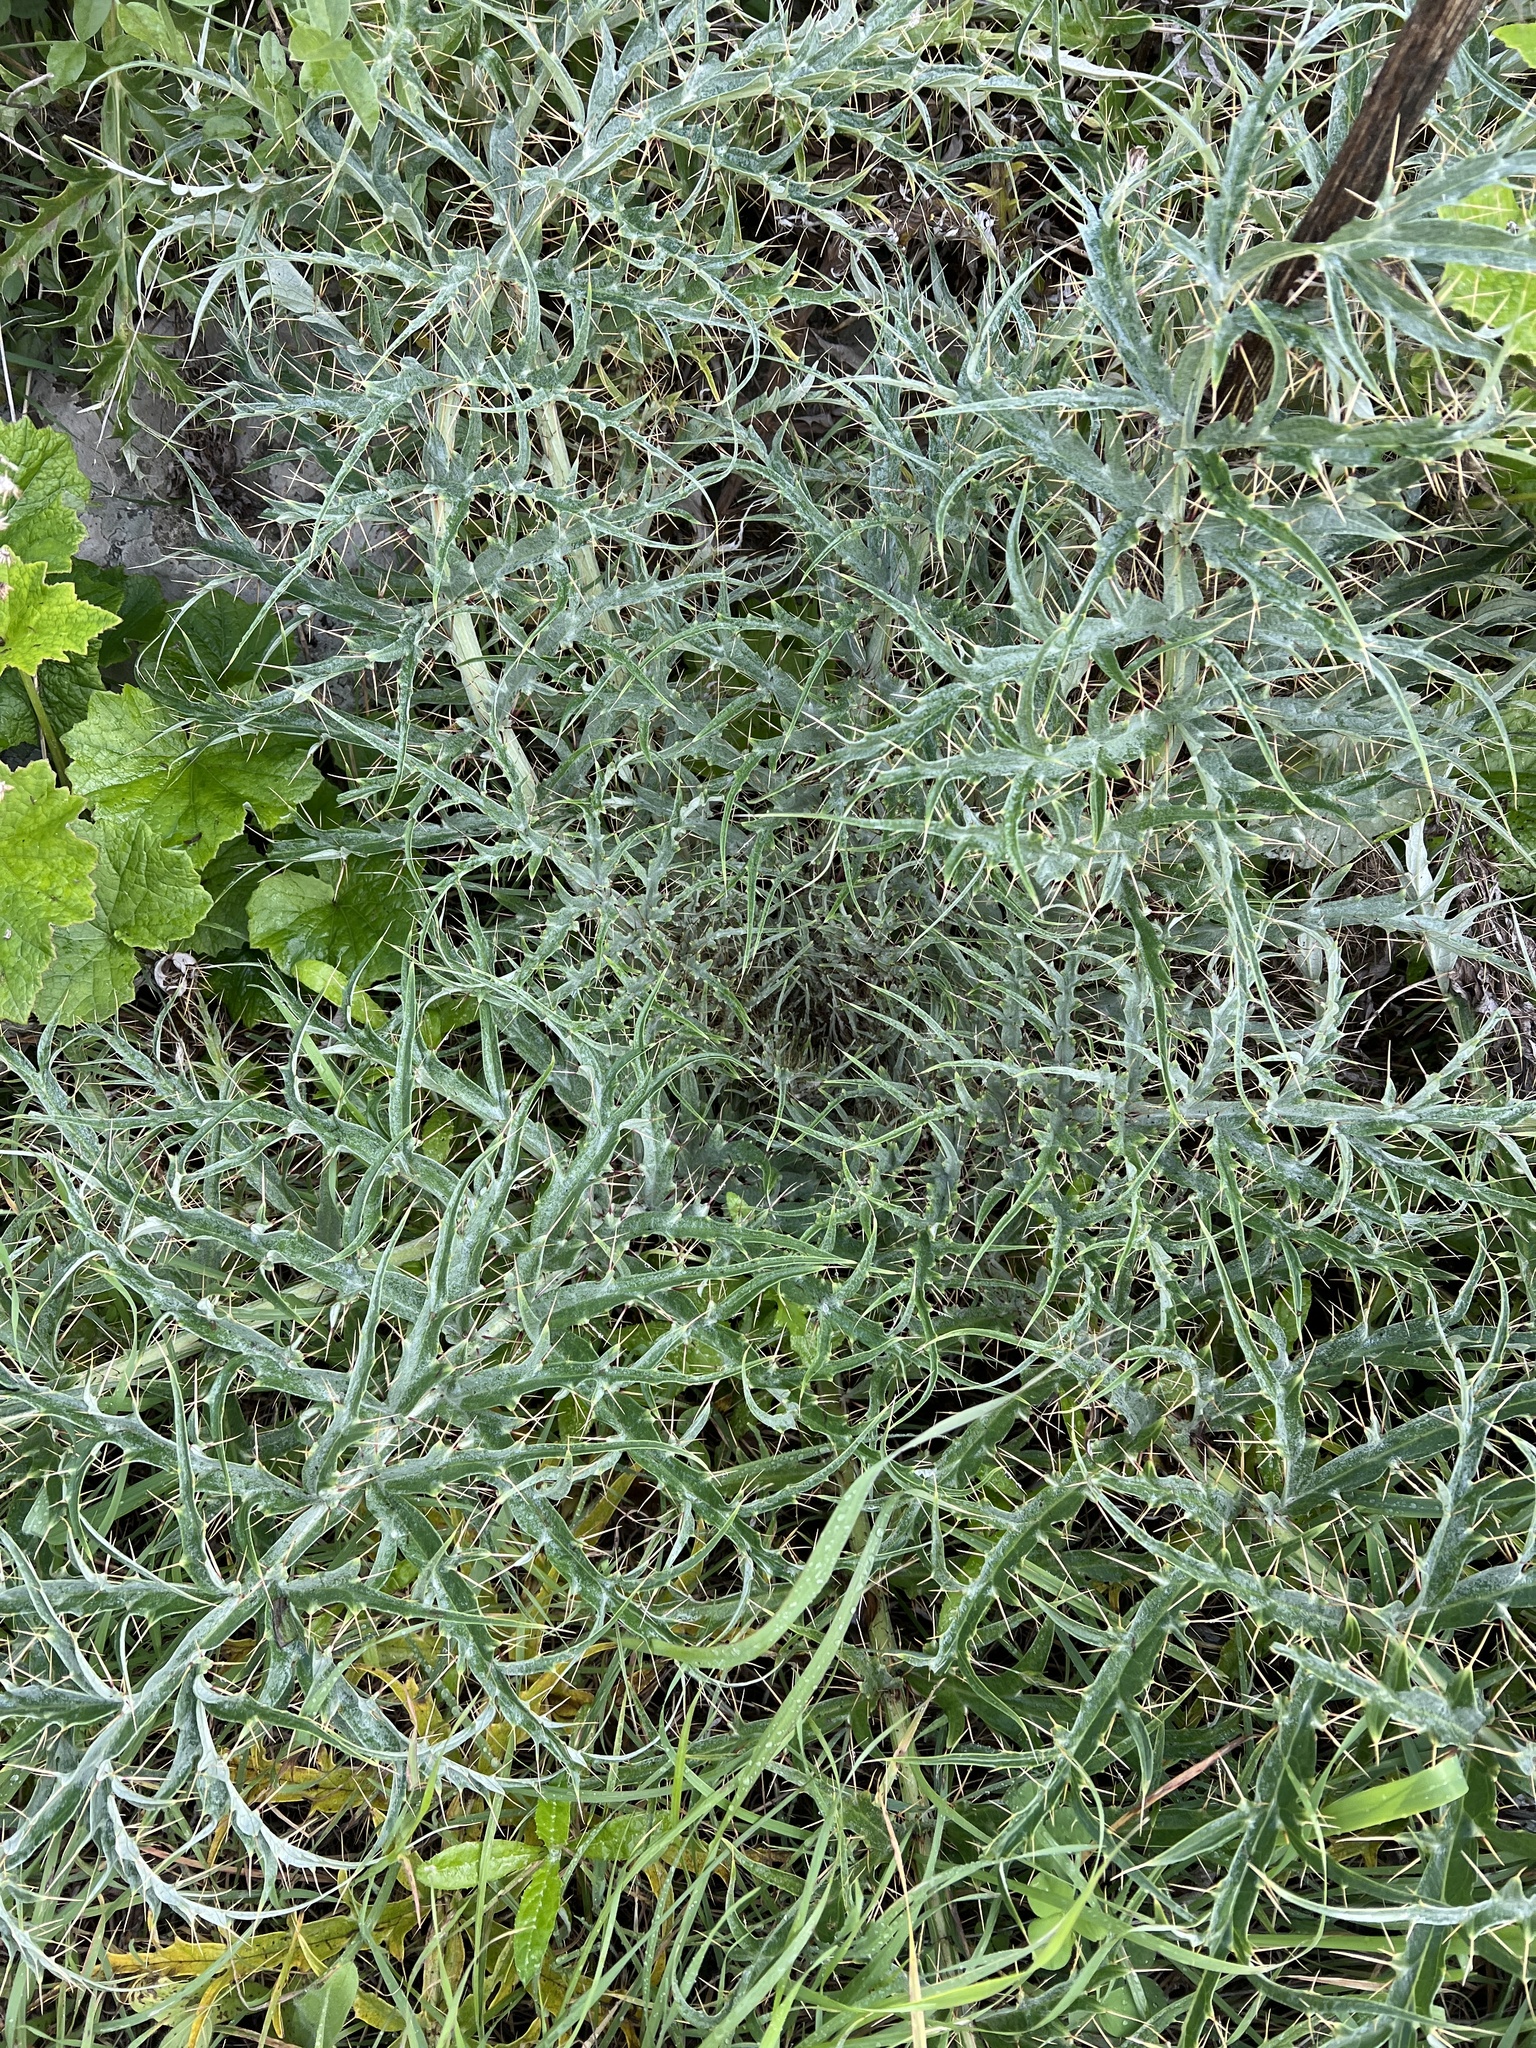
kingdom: Plantae
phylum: Tracheophyta
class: Magnoliopsida
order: Asterales
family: Asteraceae
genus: Cynara
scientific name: Cynara cardunculus
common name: Globe artichoke
